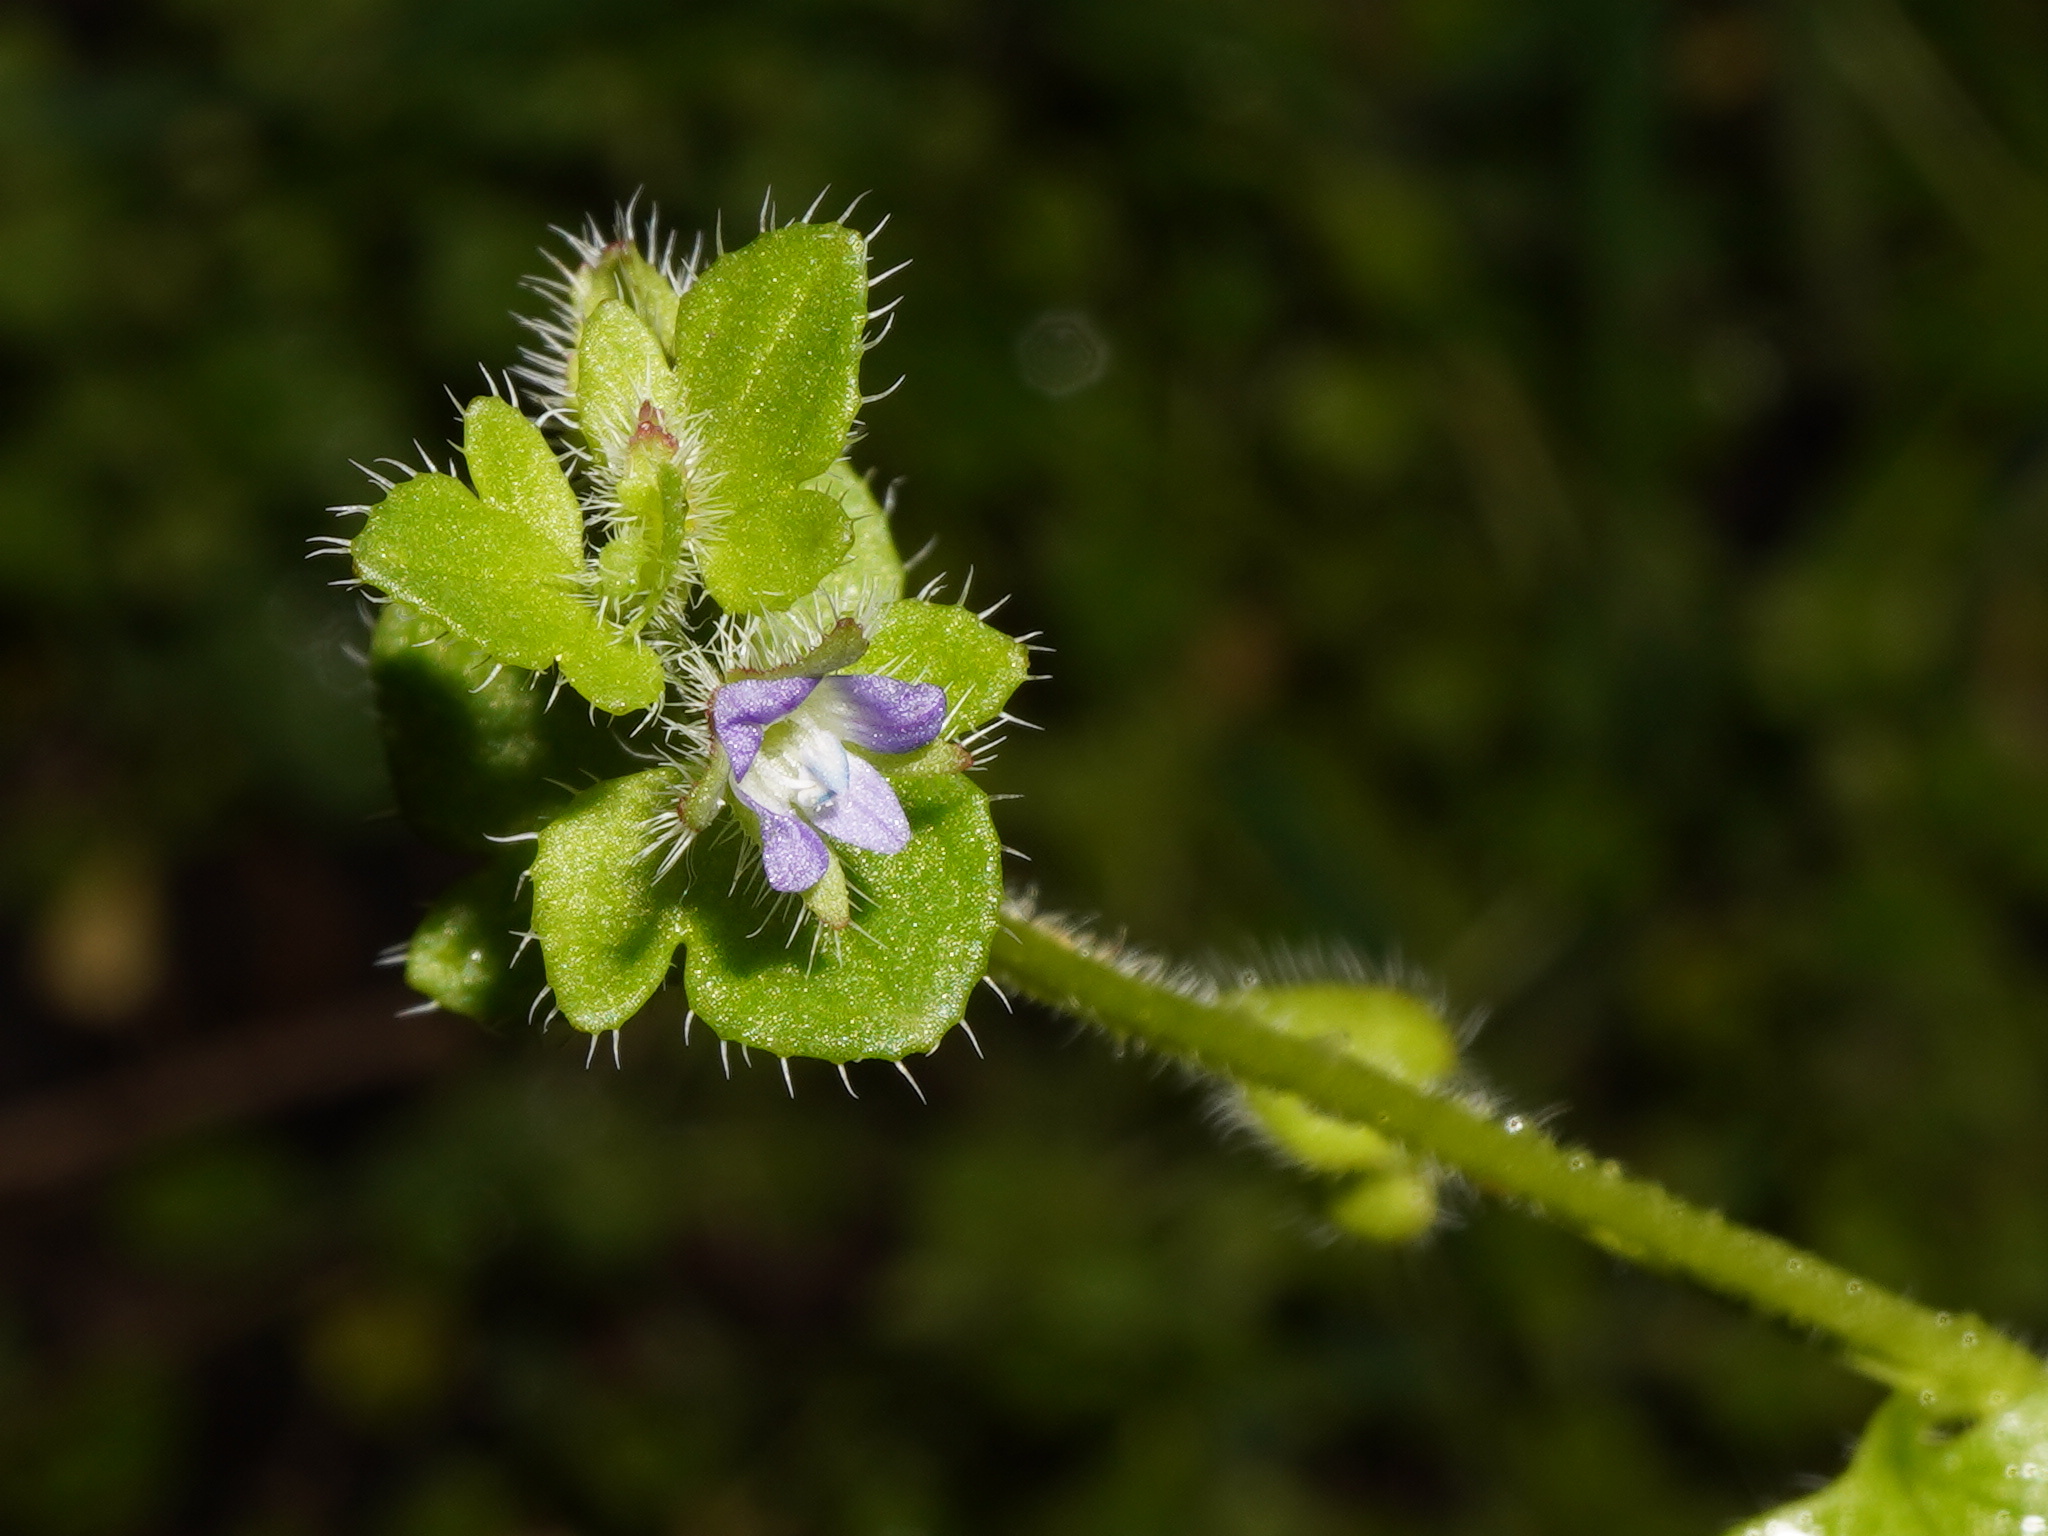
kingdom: Plantae
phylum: Tracheophyta
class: Magnoliopsida
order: Lamiales
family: Plantaginaceae
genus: Veronica
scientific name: Veronica hederifolia
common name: Ivy-leaved speedwell
